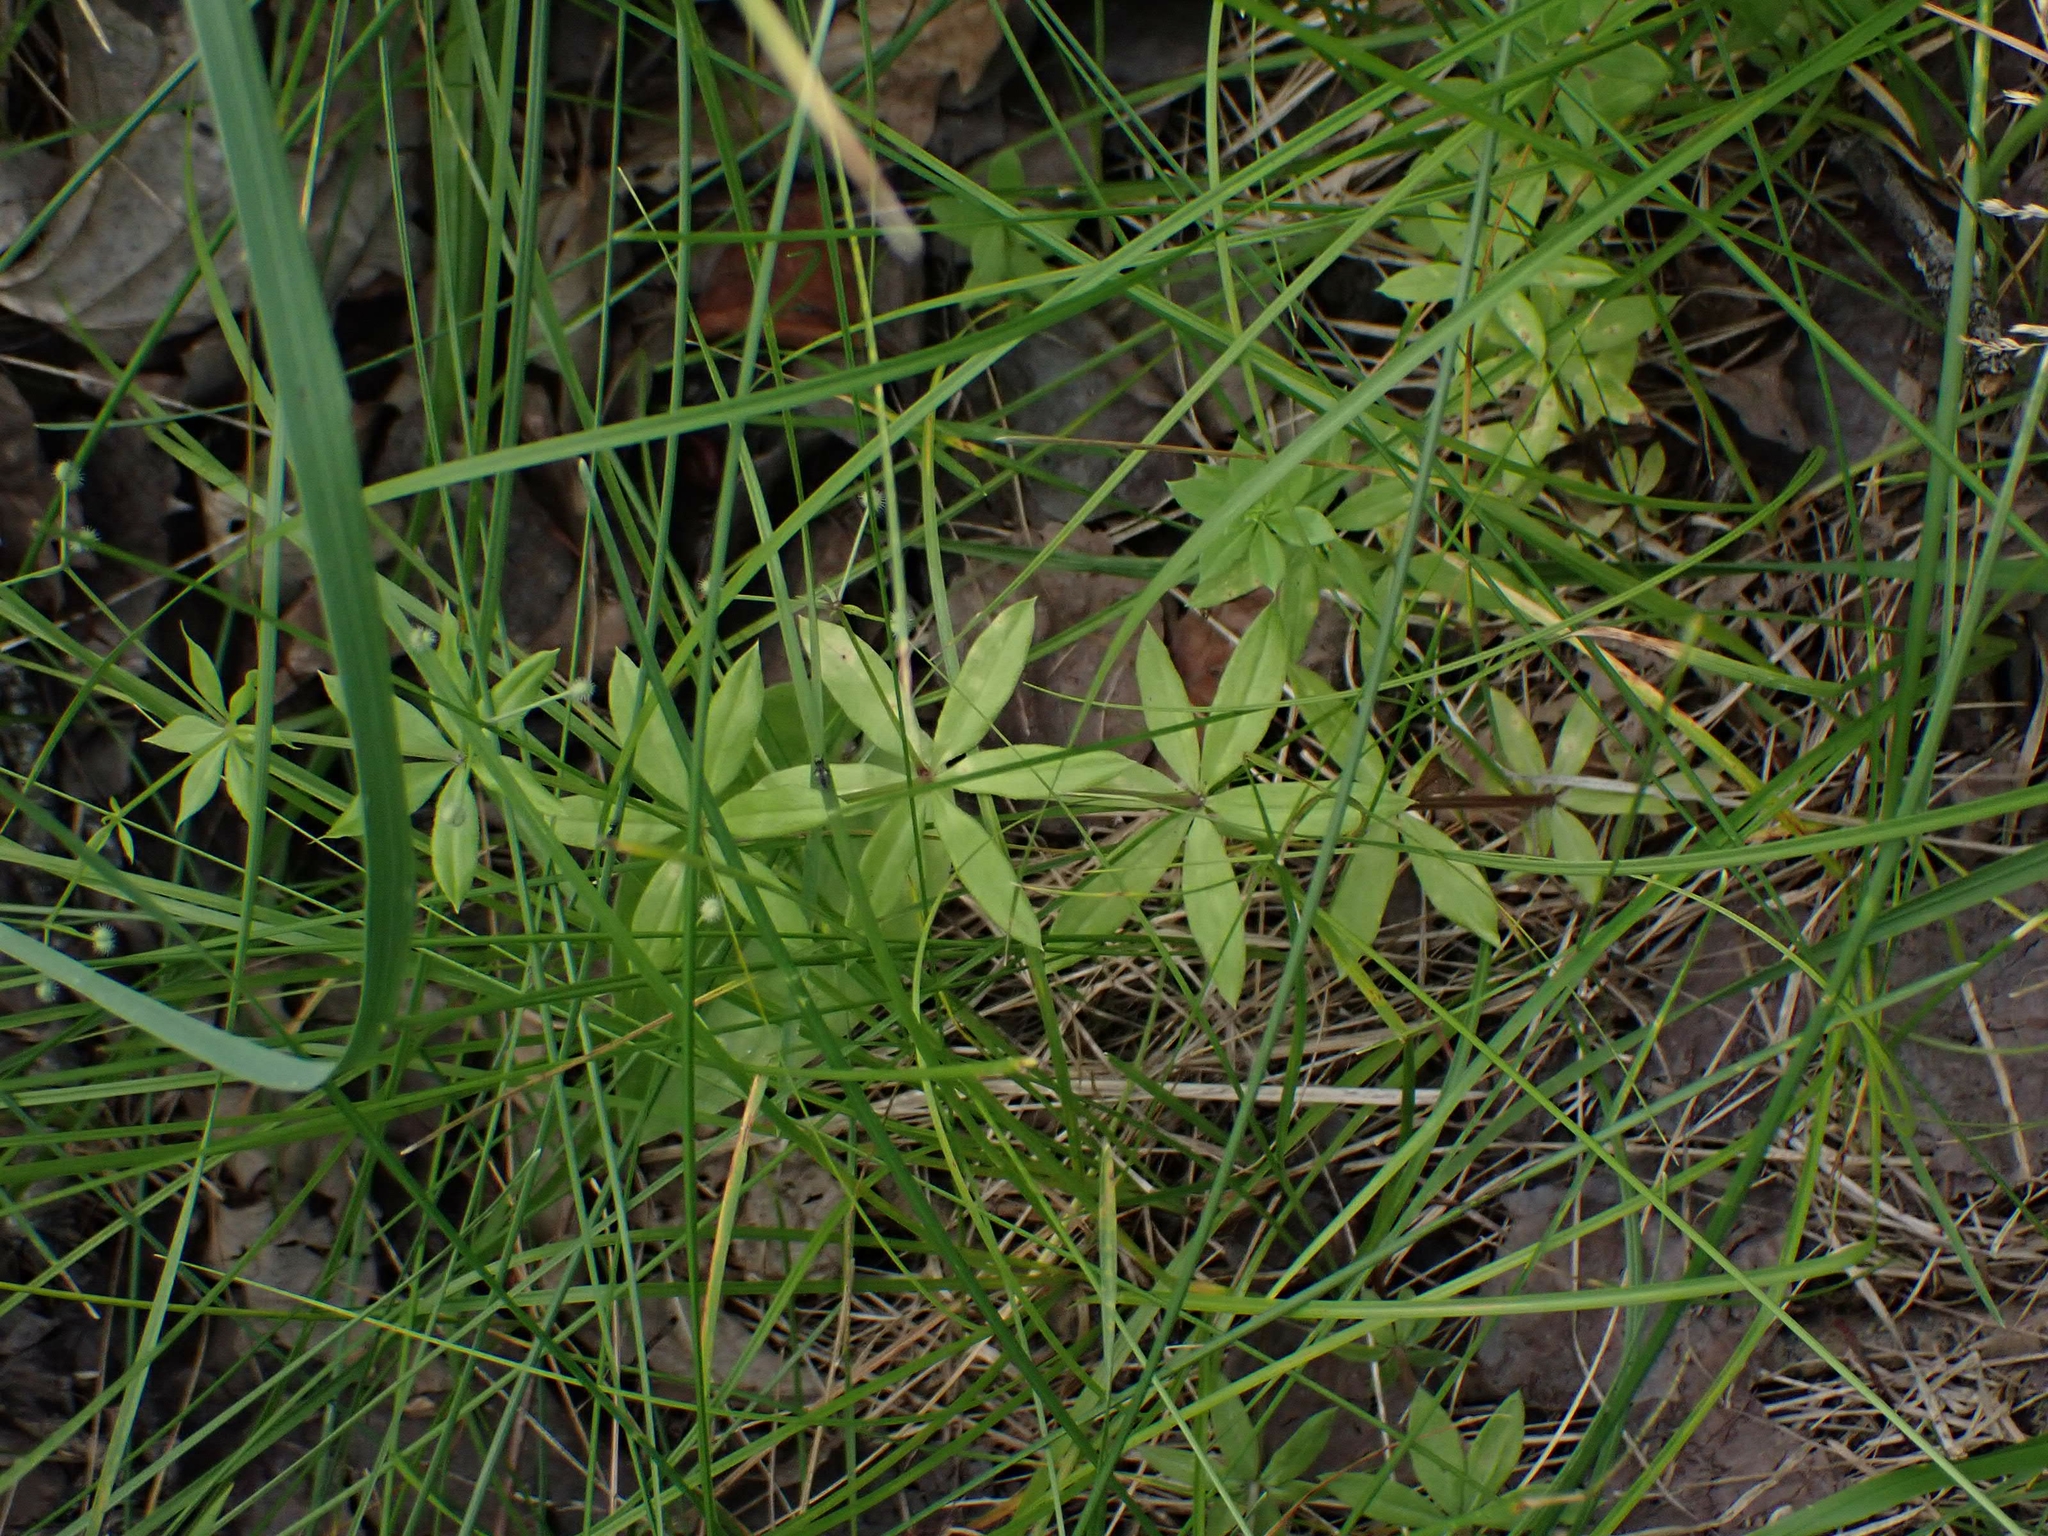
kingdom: Plantae
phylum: Tracheophyta
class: Magnoliopsida
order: Gentianales
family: Rubiaceae
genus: Galium
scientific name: Galium triflorum
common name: Fragrant bedstraw
